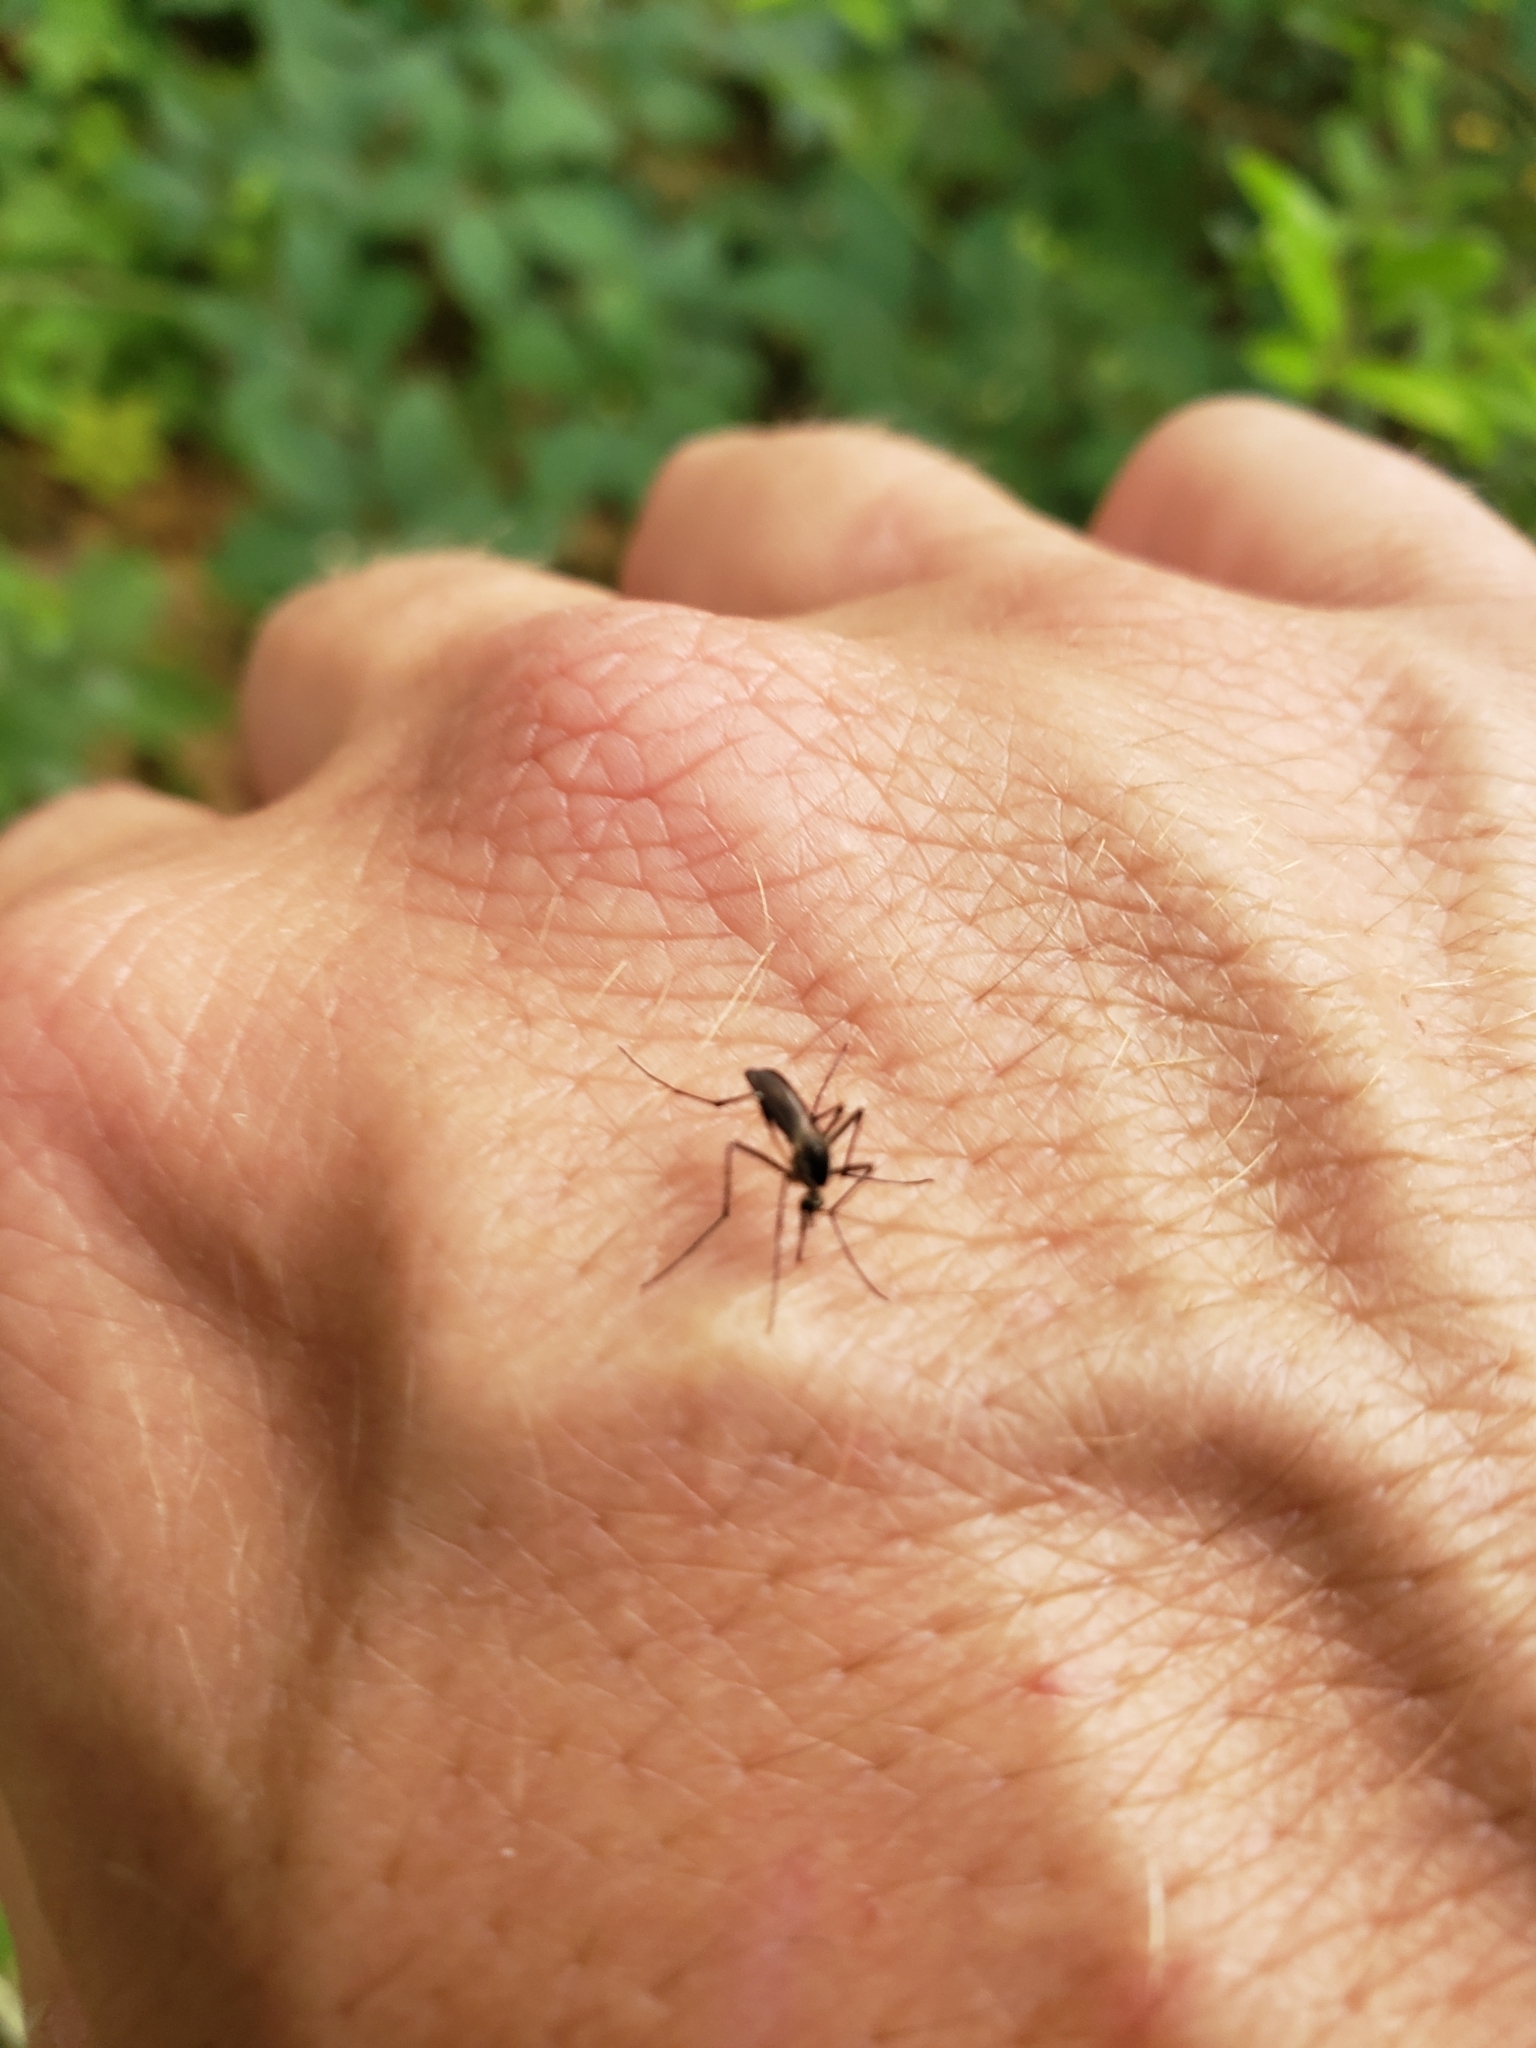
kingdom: Animalia
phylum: Arthropoda
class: Insecta
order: Diptera
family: Culicidae
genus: Aedes
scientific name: Aedes triseriatus
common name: Eastern treehole mosquito
